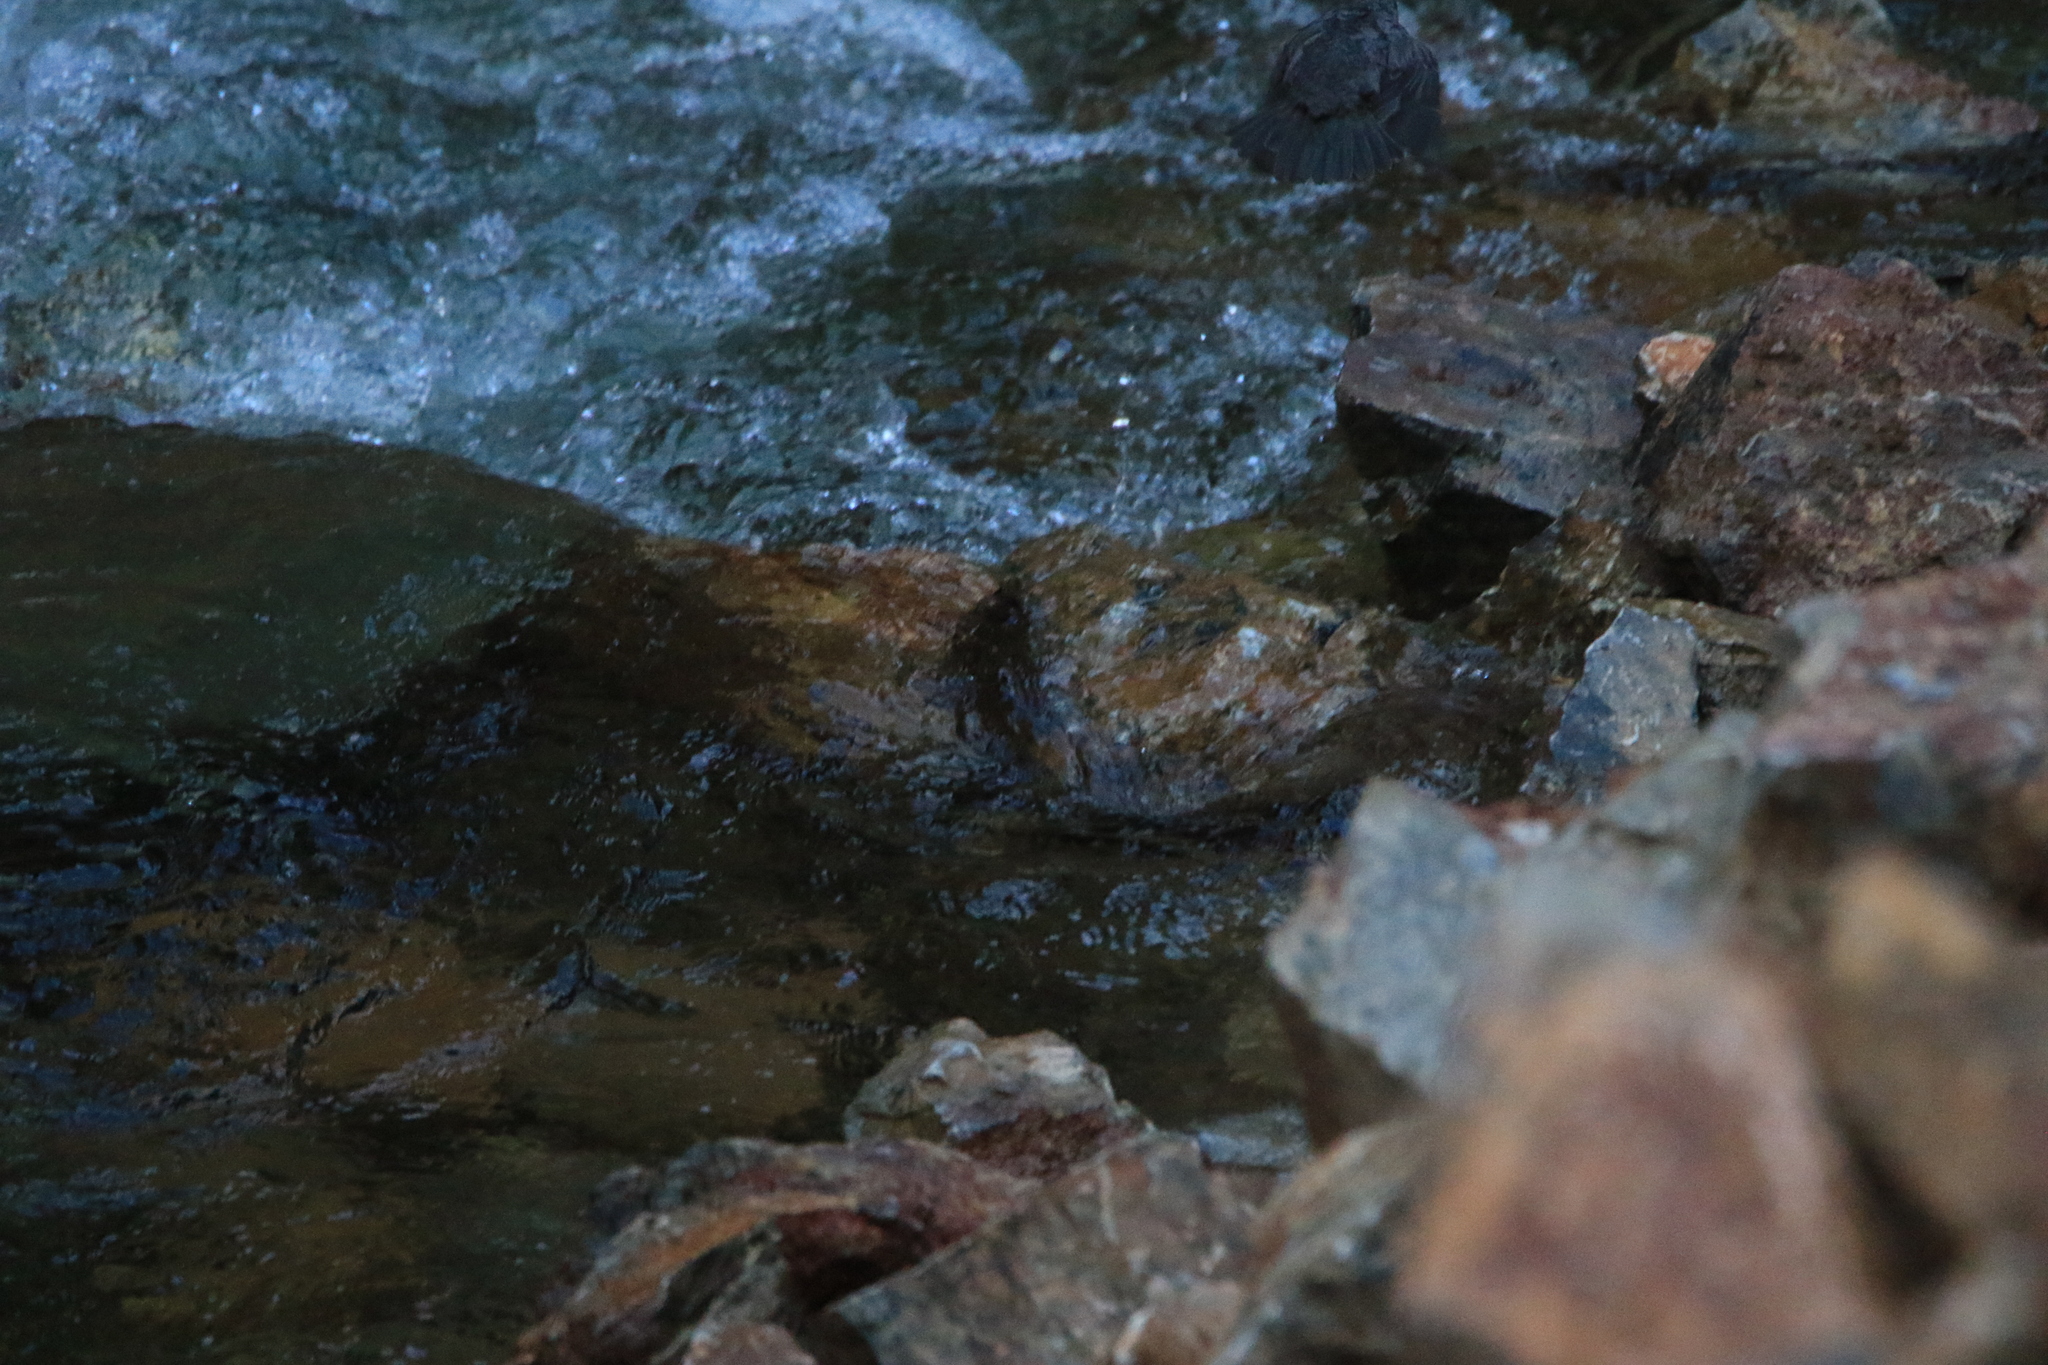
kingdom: Animalia
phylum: Chordata
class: Aves
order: Passeriformes
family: Cinclidae
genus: Cinclus
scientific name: Cinclus cinclus
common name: White-throated dipper
